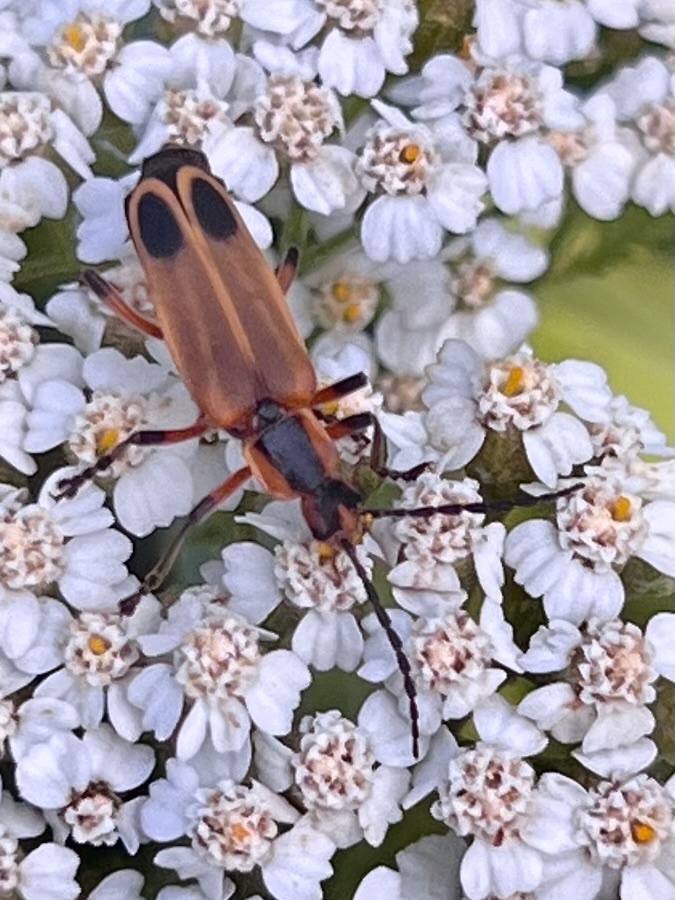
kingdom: Animalia
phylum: Arthropoda
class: Insecta
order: Coleoptera
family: Cantharidae
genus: Chauliognathus
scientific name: Chauliognathus marginatus
